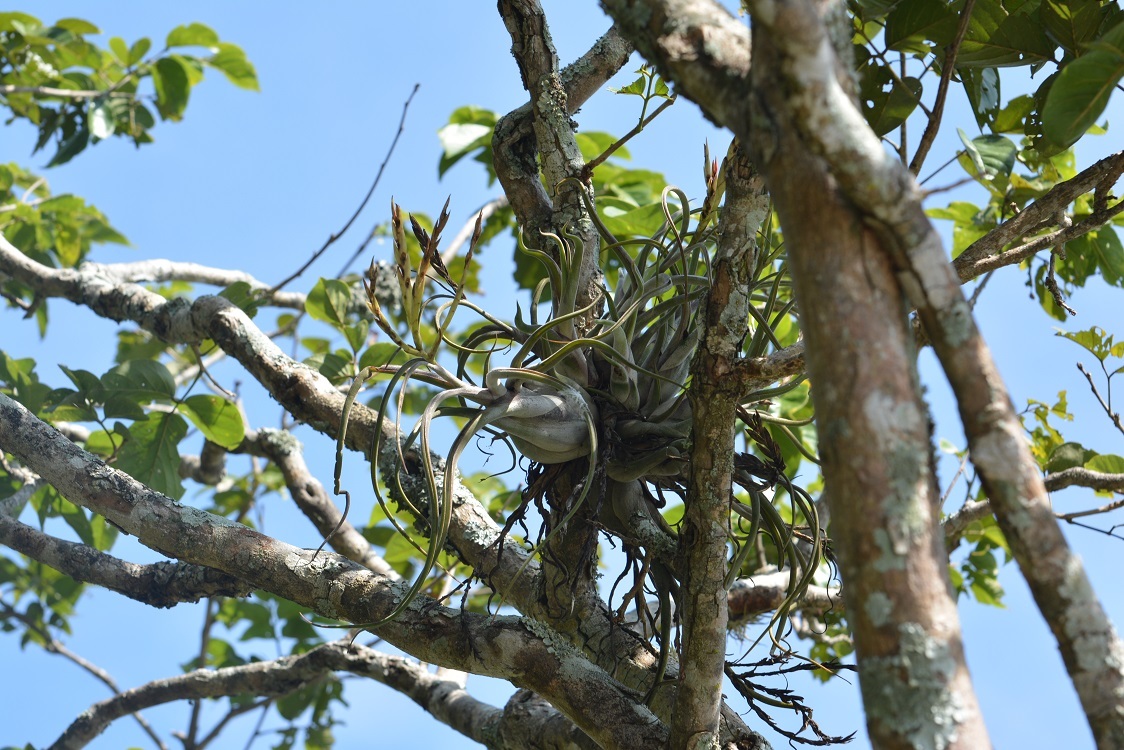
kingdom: Plantae
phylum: Tracheophyta
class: Liliopsida
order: Poales
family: Bromeliaceae
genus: Tillandsia
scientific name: Tillandsia caput-medusae
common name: Octopus plant
